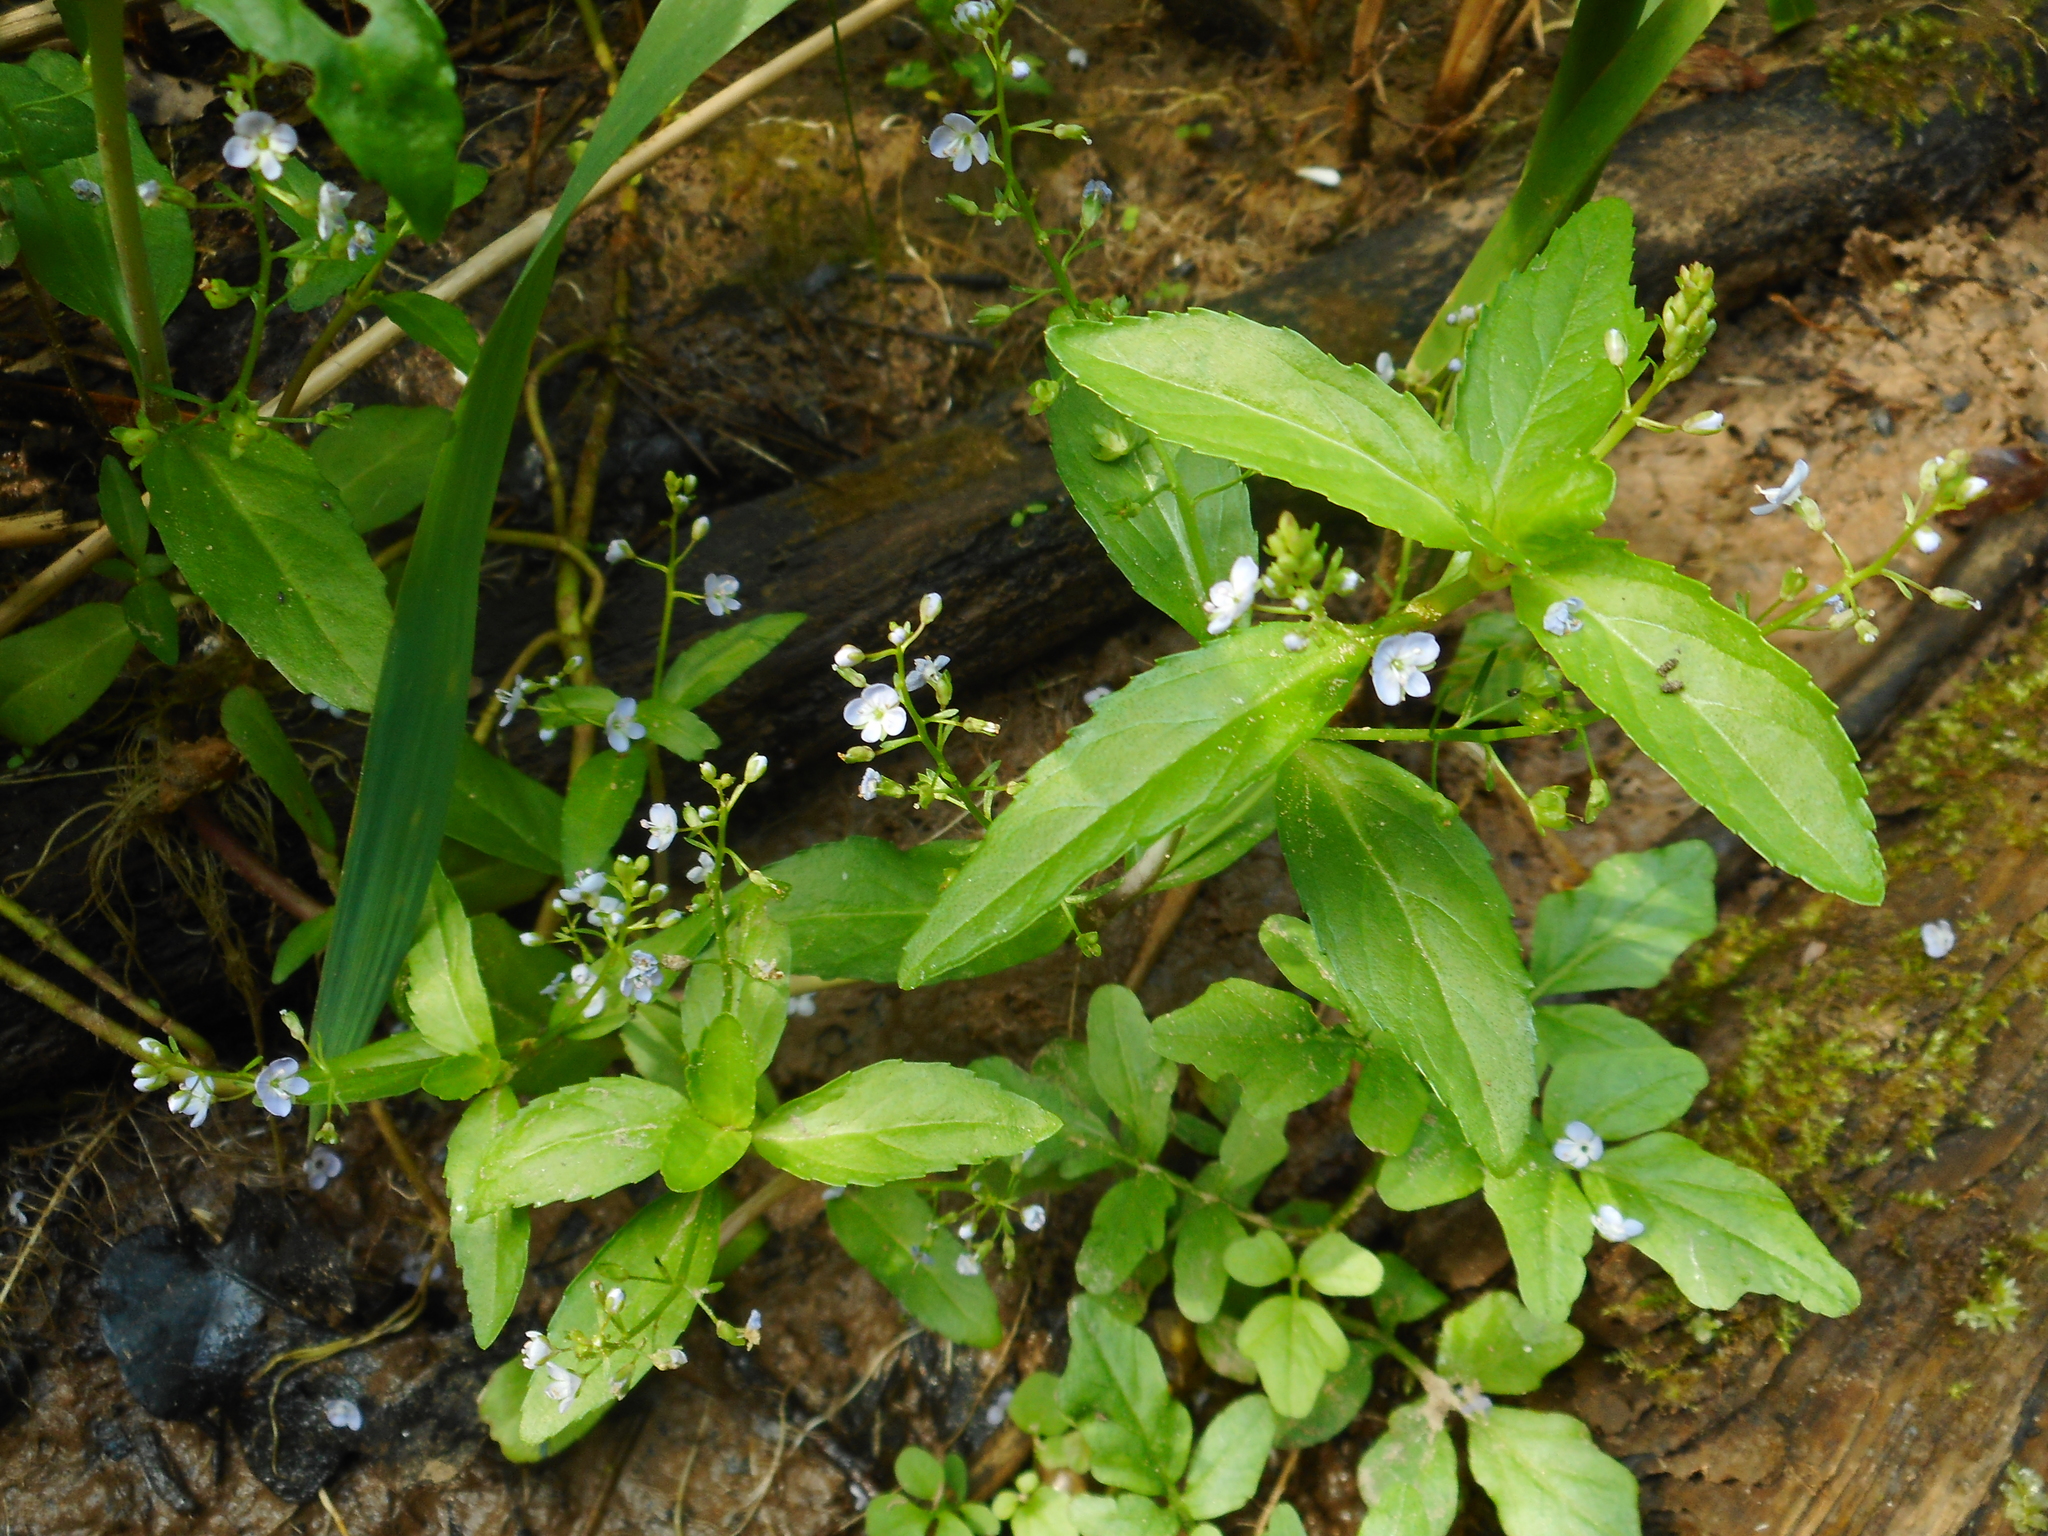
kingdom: Plantae
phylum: Tracheophyta
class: Magnoliopsida
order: Lamiales
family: Plantaginaceae
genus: Veronica
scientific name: Veronica beccabunga
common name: Brooklime
